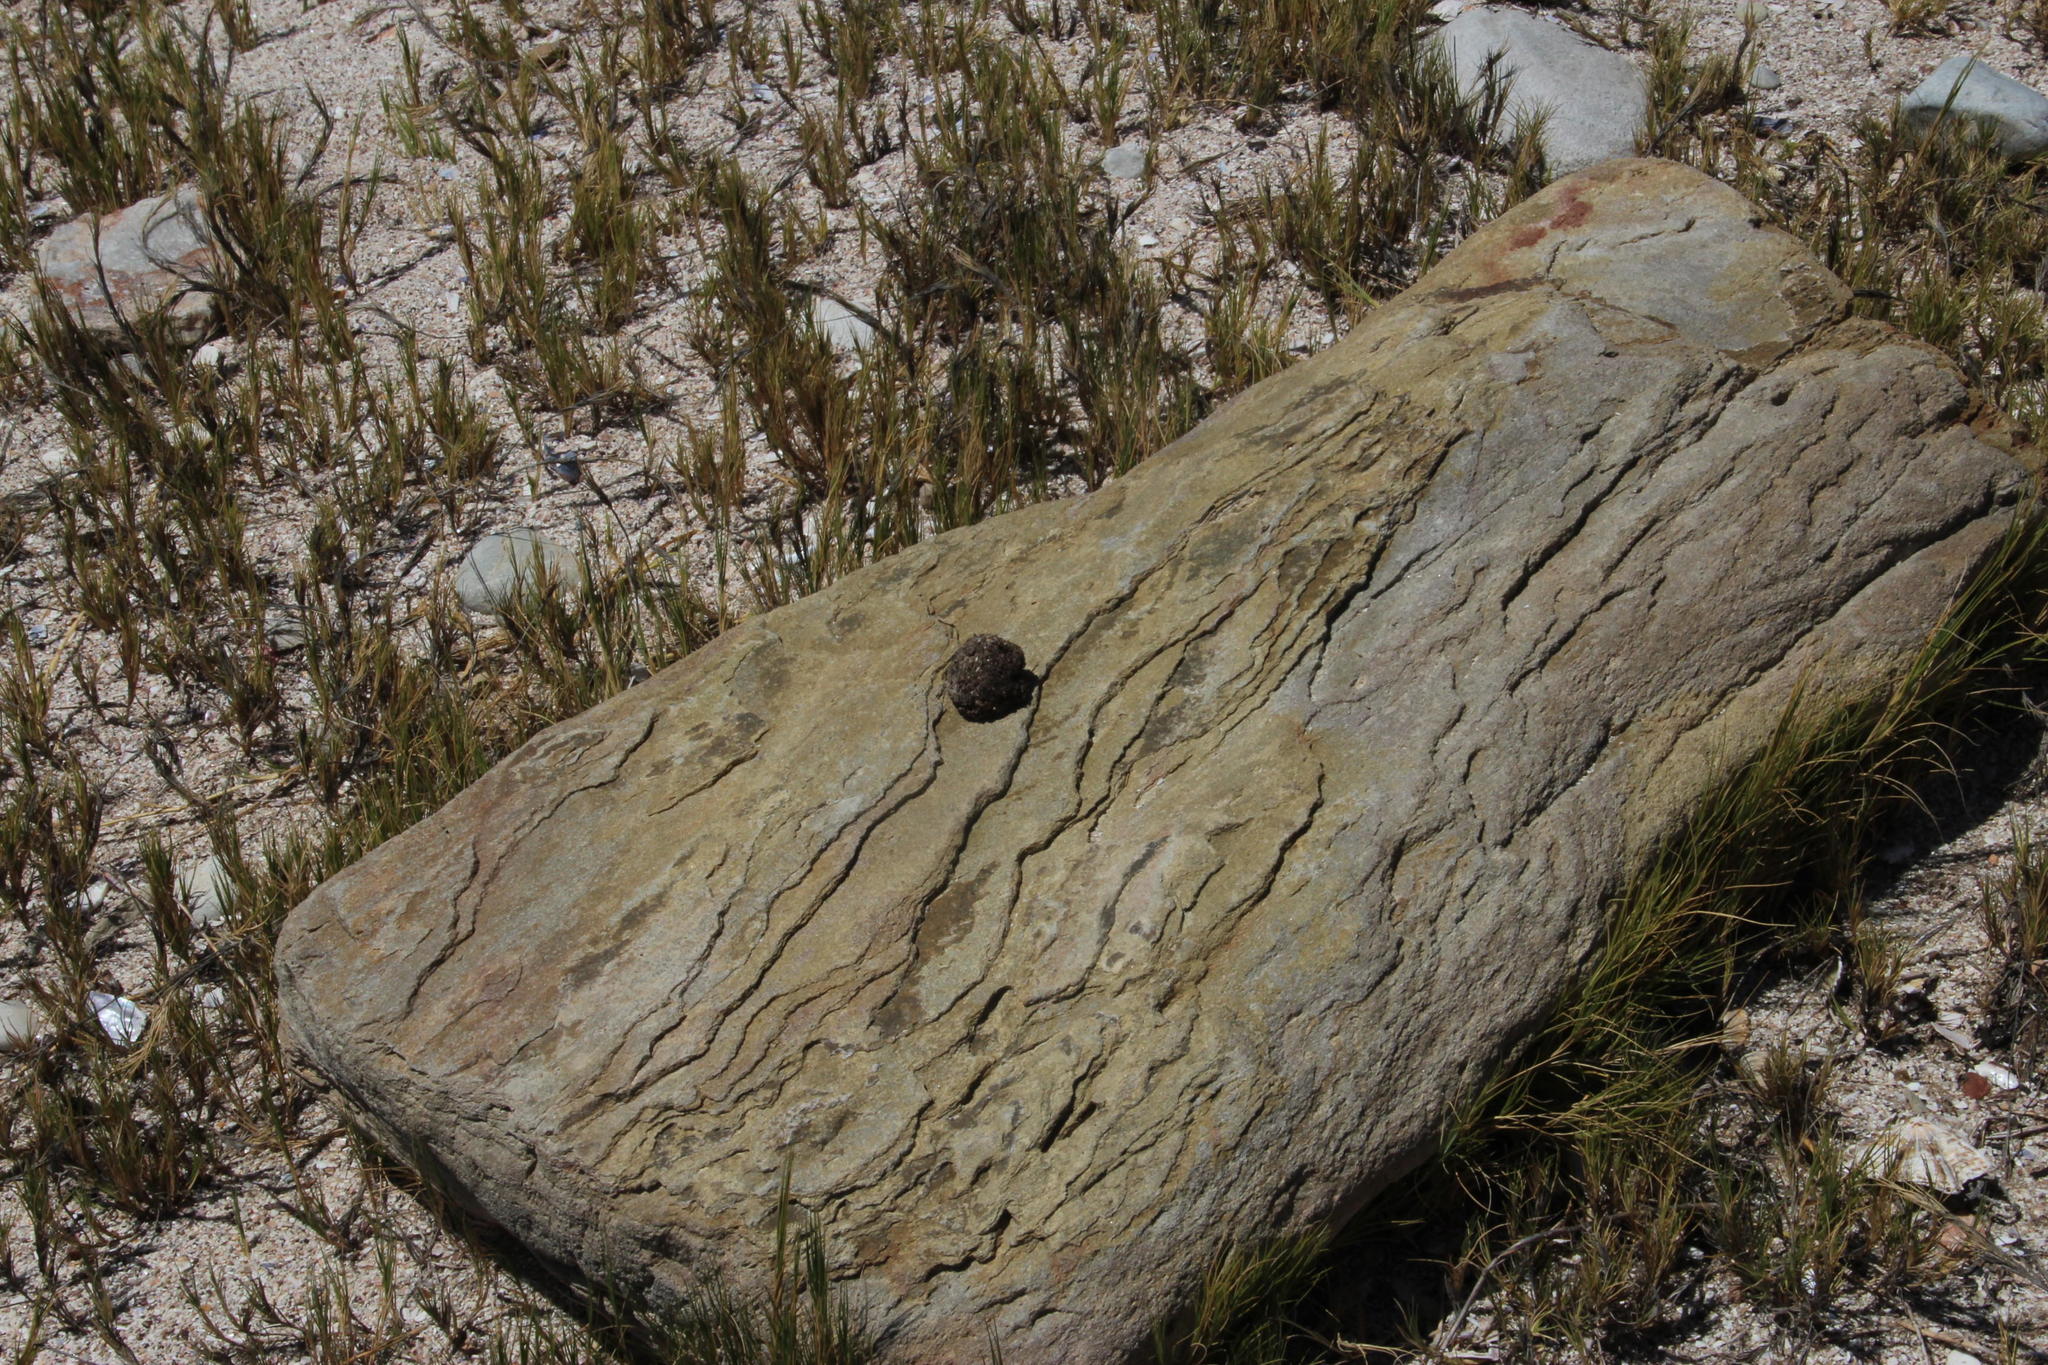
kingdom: Animalia
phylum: Chordata
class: Mammalia
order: Primates
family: Cercopithecidae
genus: Papio
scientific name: Papio ursinus
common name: Chacma baboon
